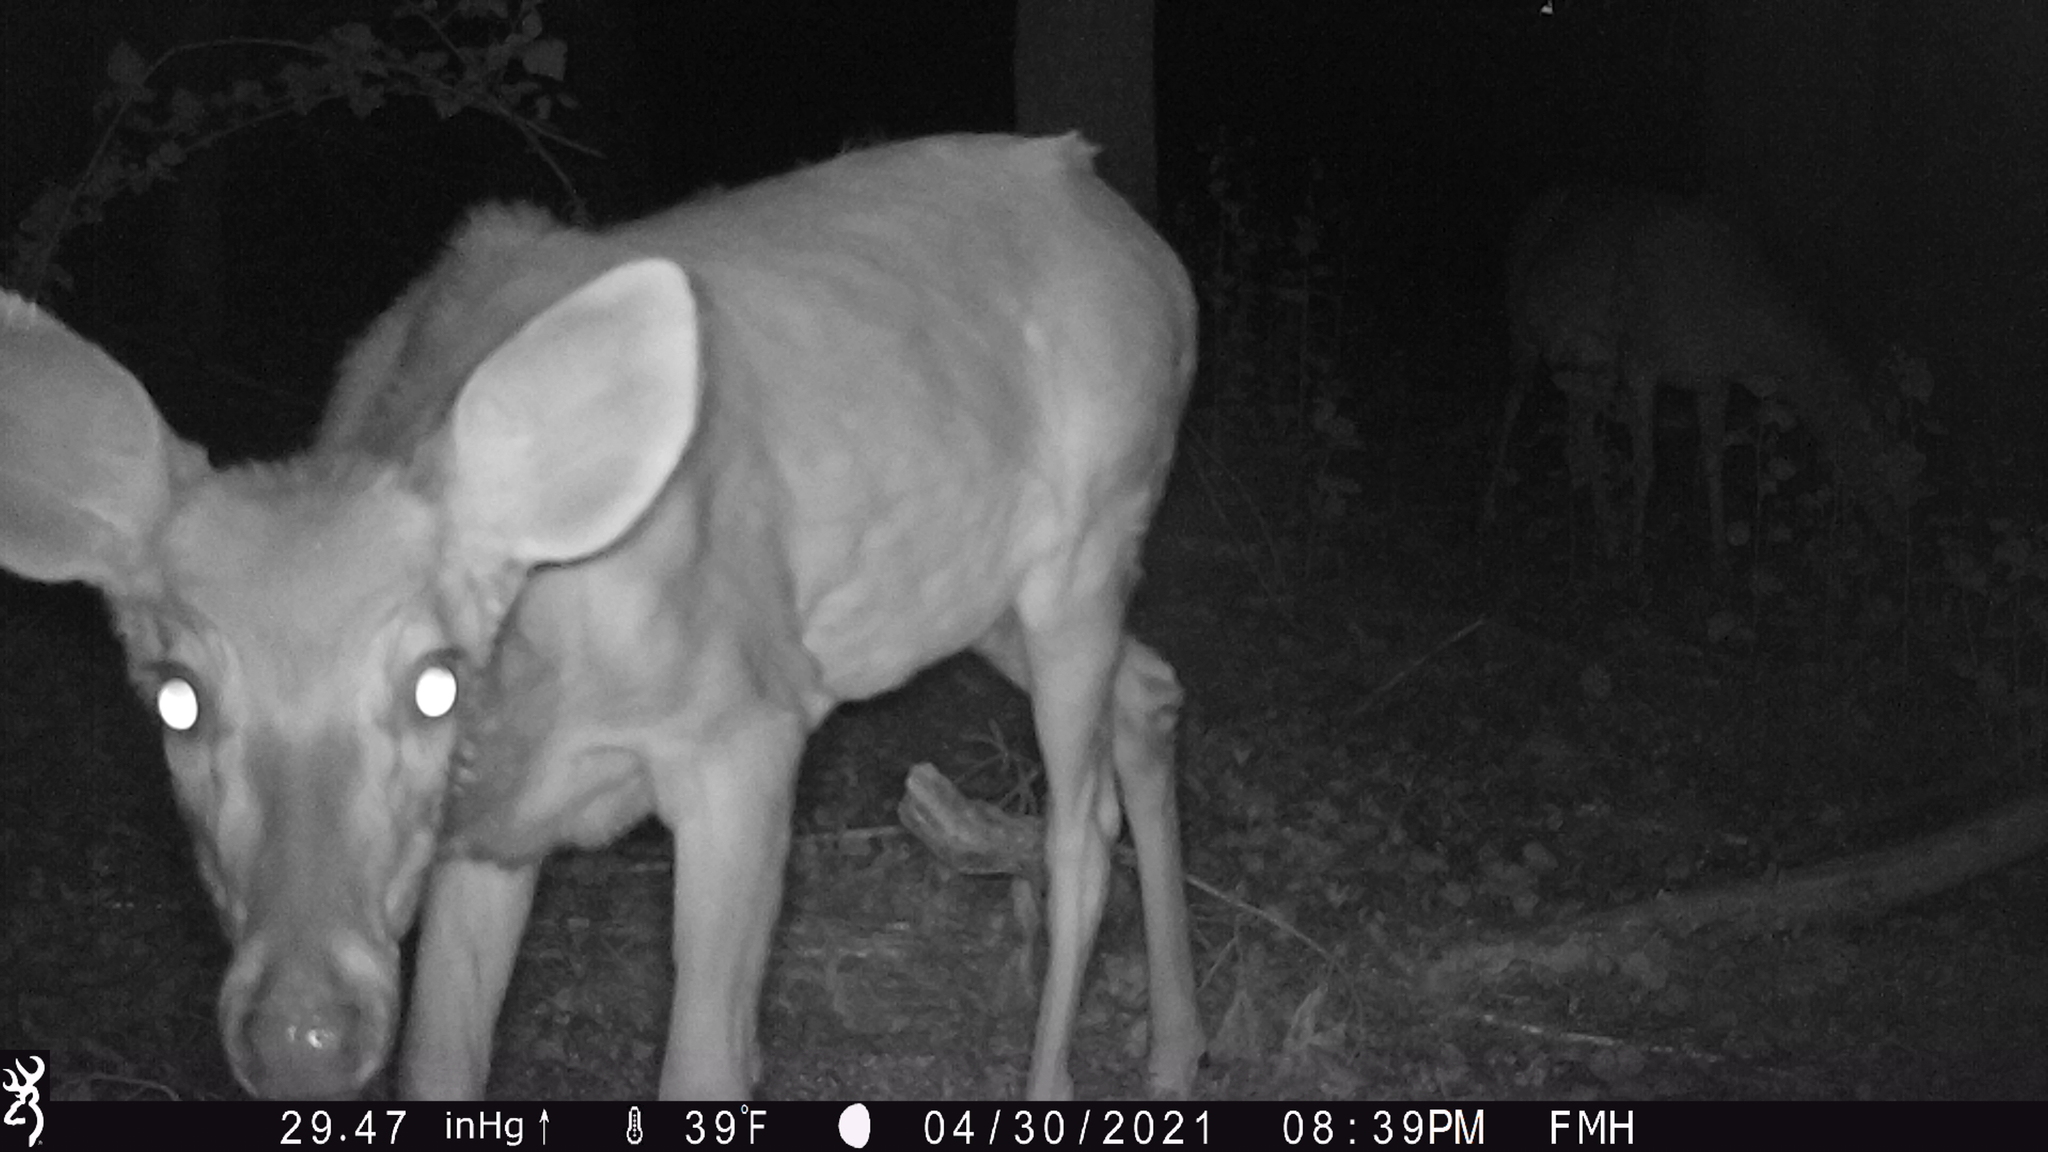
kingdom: Animalia
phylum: Chordata
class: Mammalia
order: Artiodactyla
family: Cervidae
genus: Odocoileus
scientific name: Odocoileus virginianus
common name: White-tailed deer
